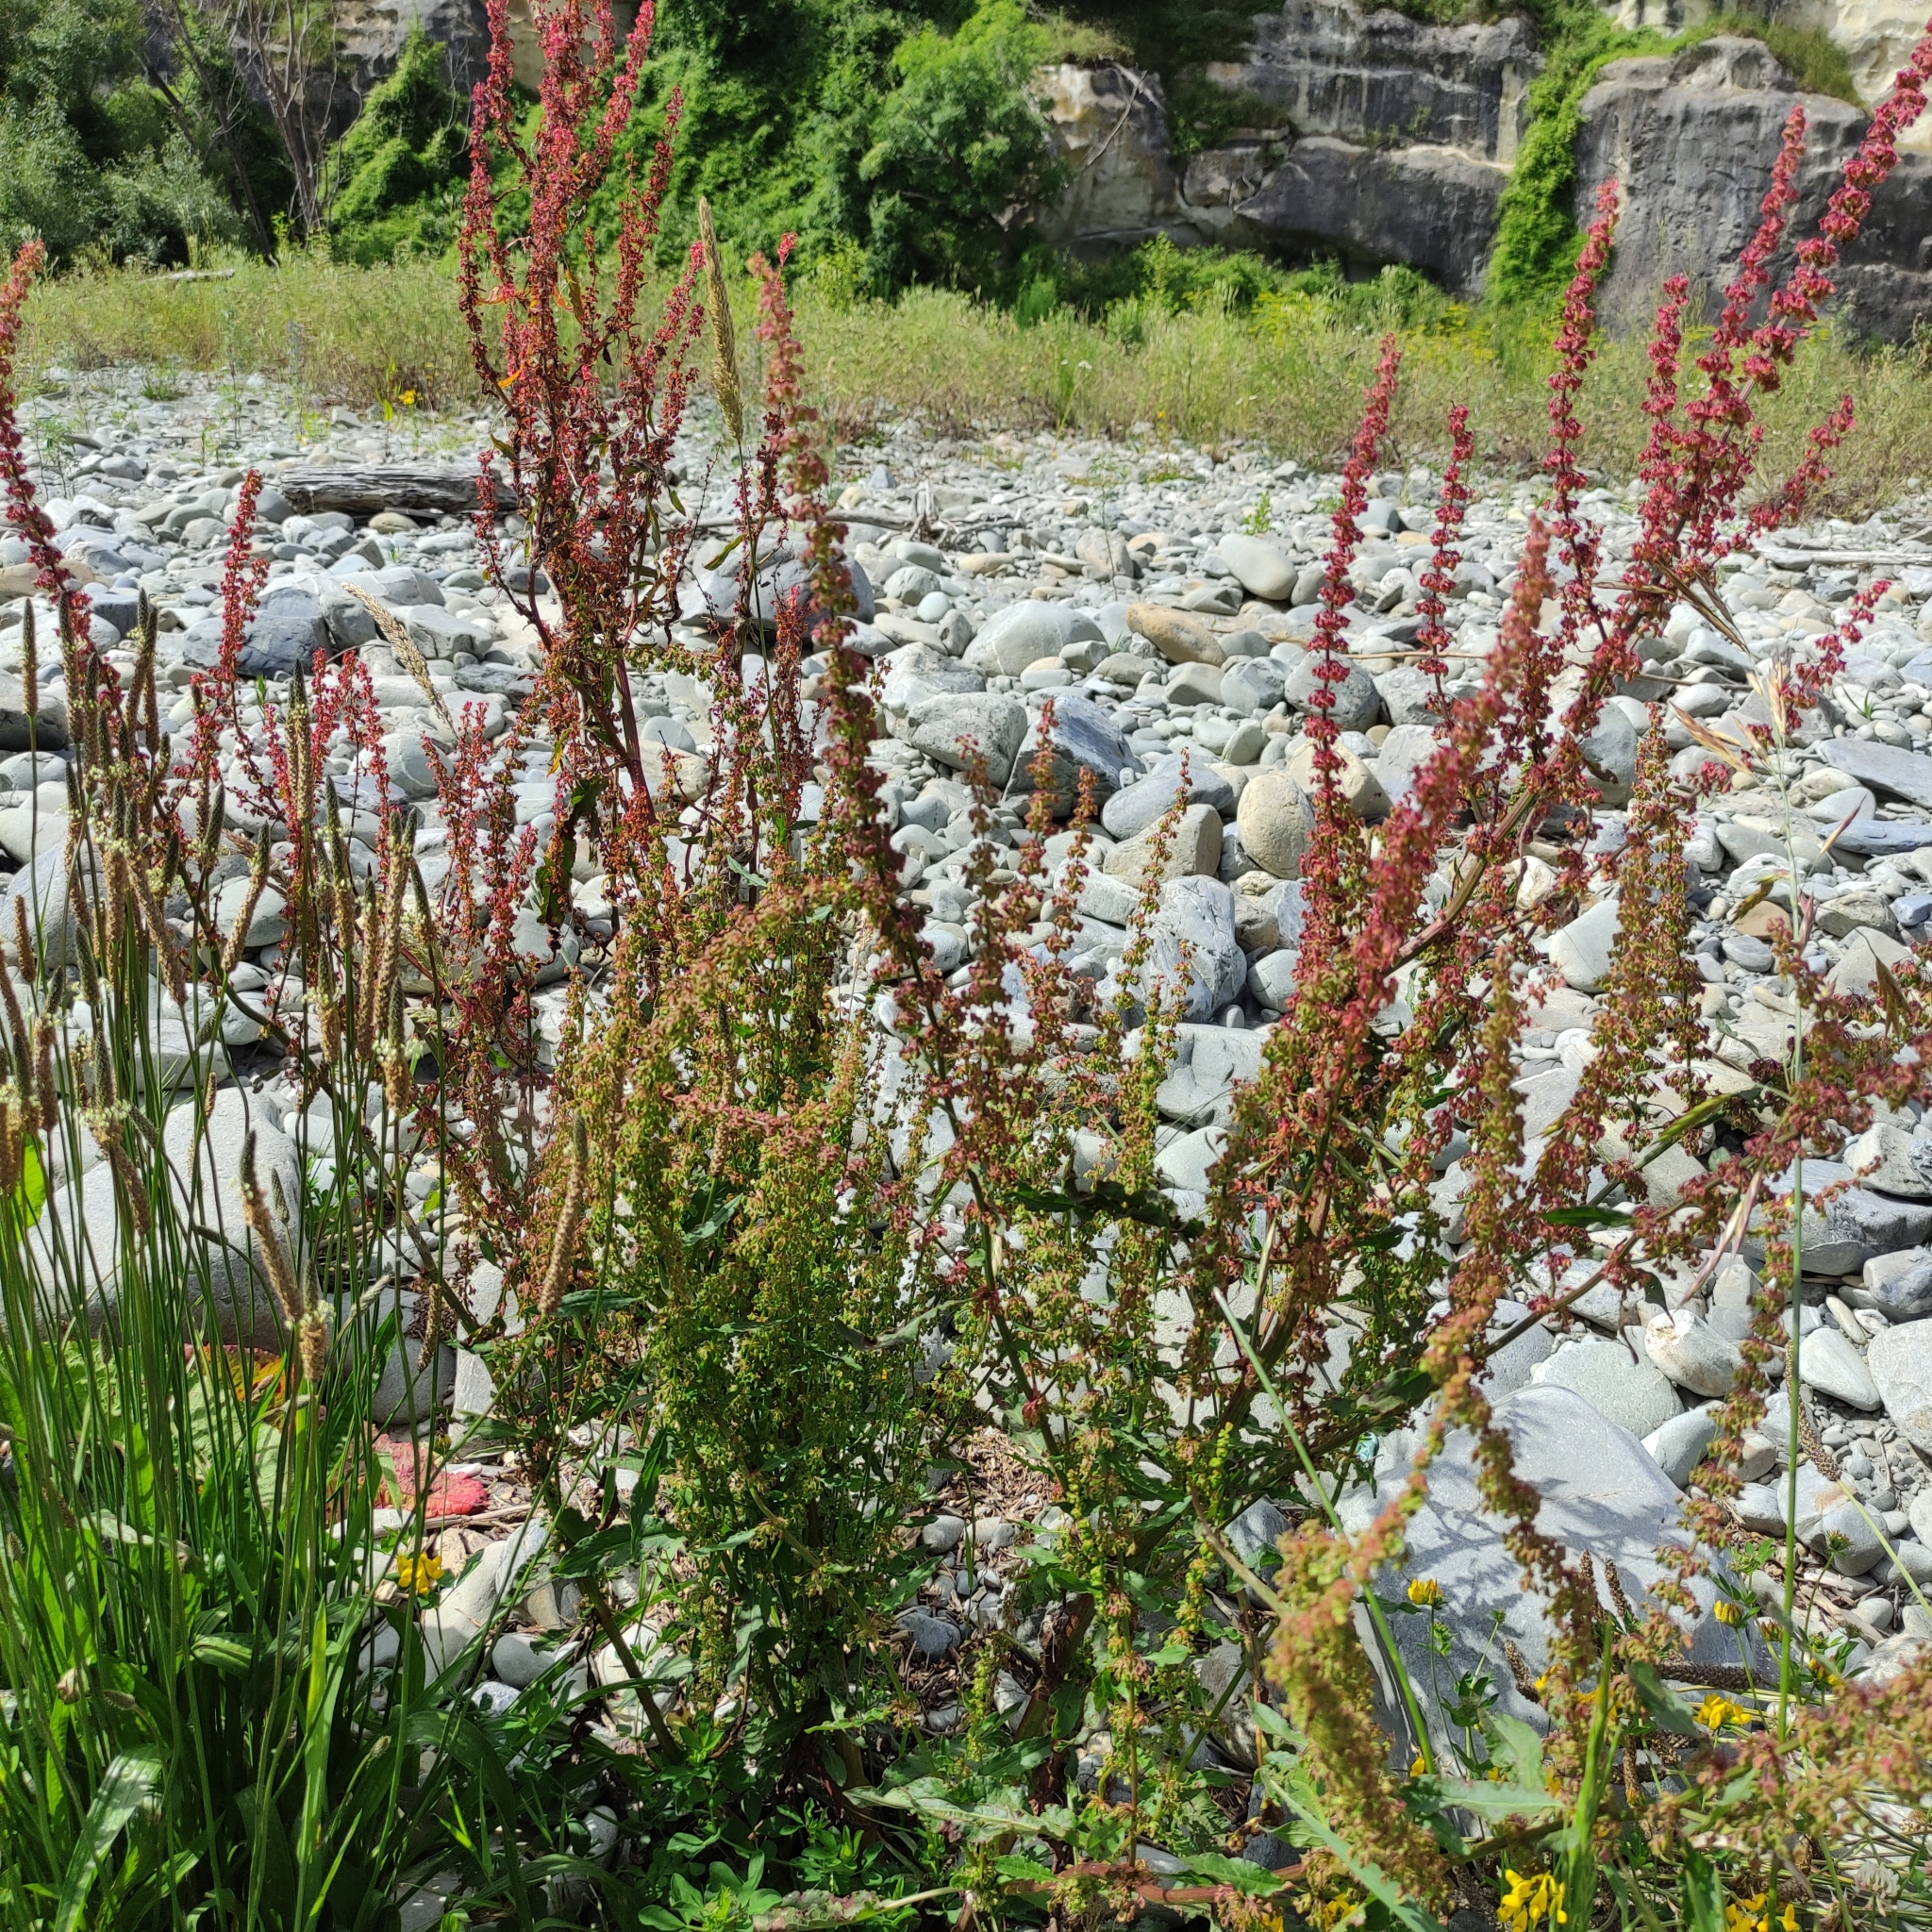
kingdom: Plantae
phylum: Tracheophyta
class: Magnoliopsida
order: Caryophyllales
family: Polygonaceae
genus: Rumex
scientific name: Rumex crispus
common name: Curled dock
